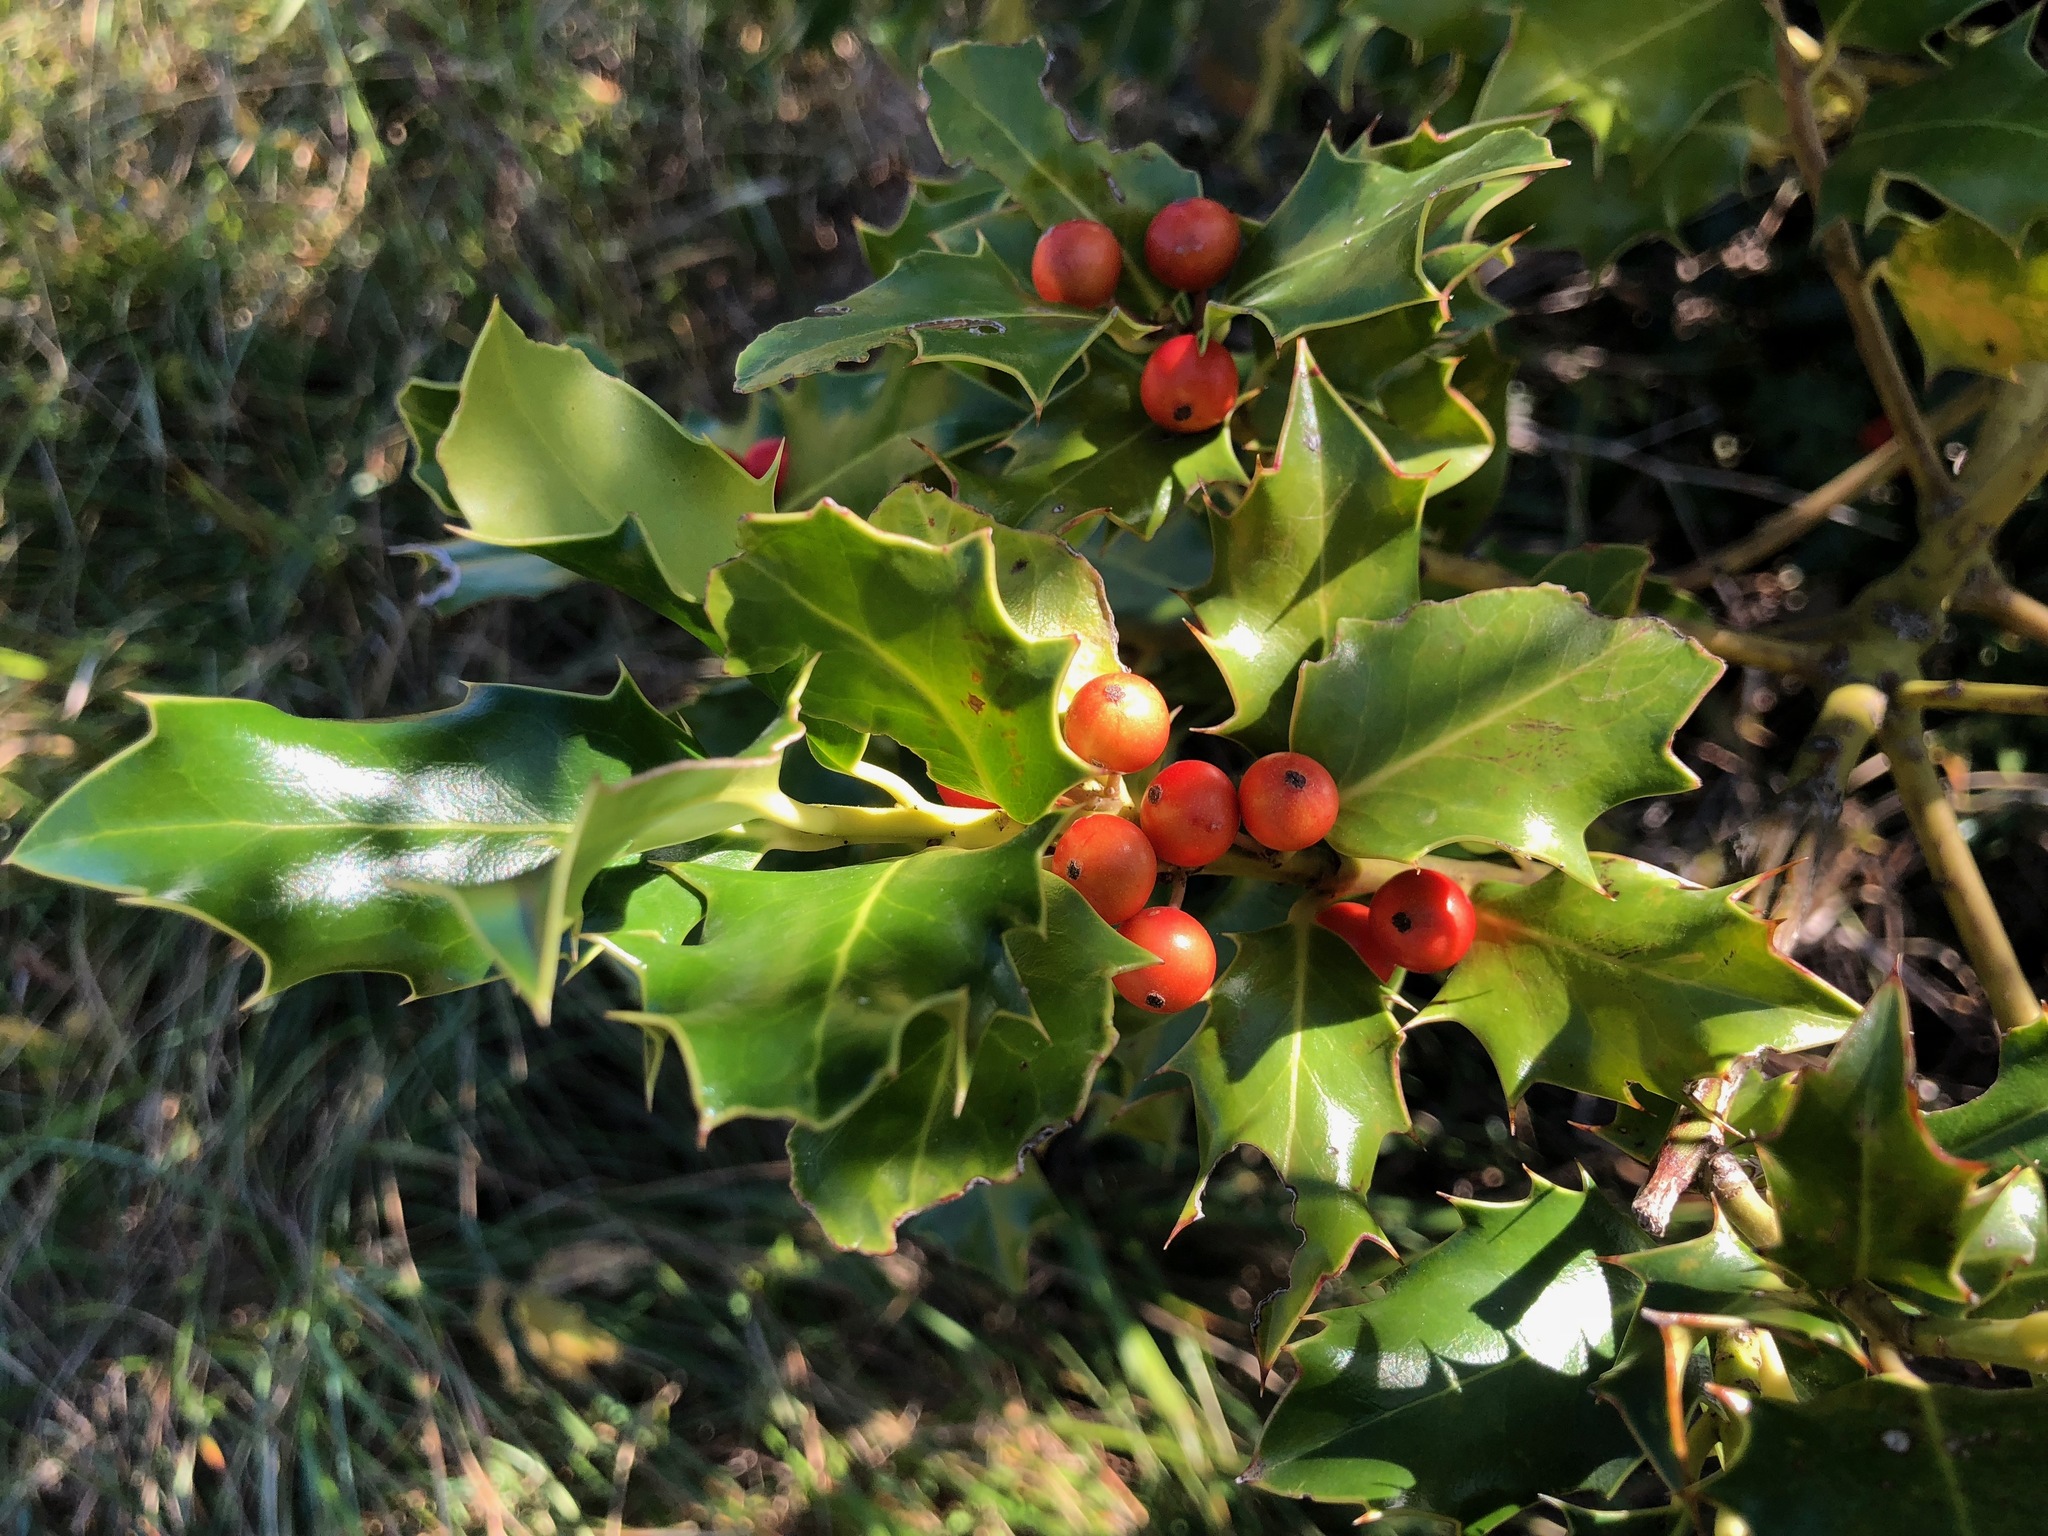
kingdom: Plantae
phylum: Tracheophyta
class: Magnoliopsida
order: Aquifoliales
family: Aquifoliaceae
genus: Ilex
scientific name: Ilex aquifolium
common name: English holly
